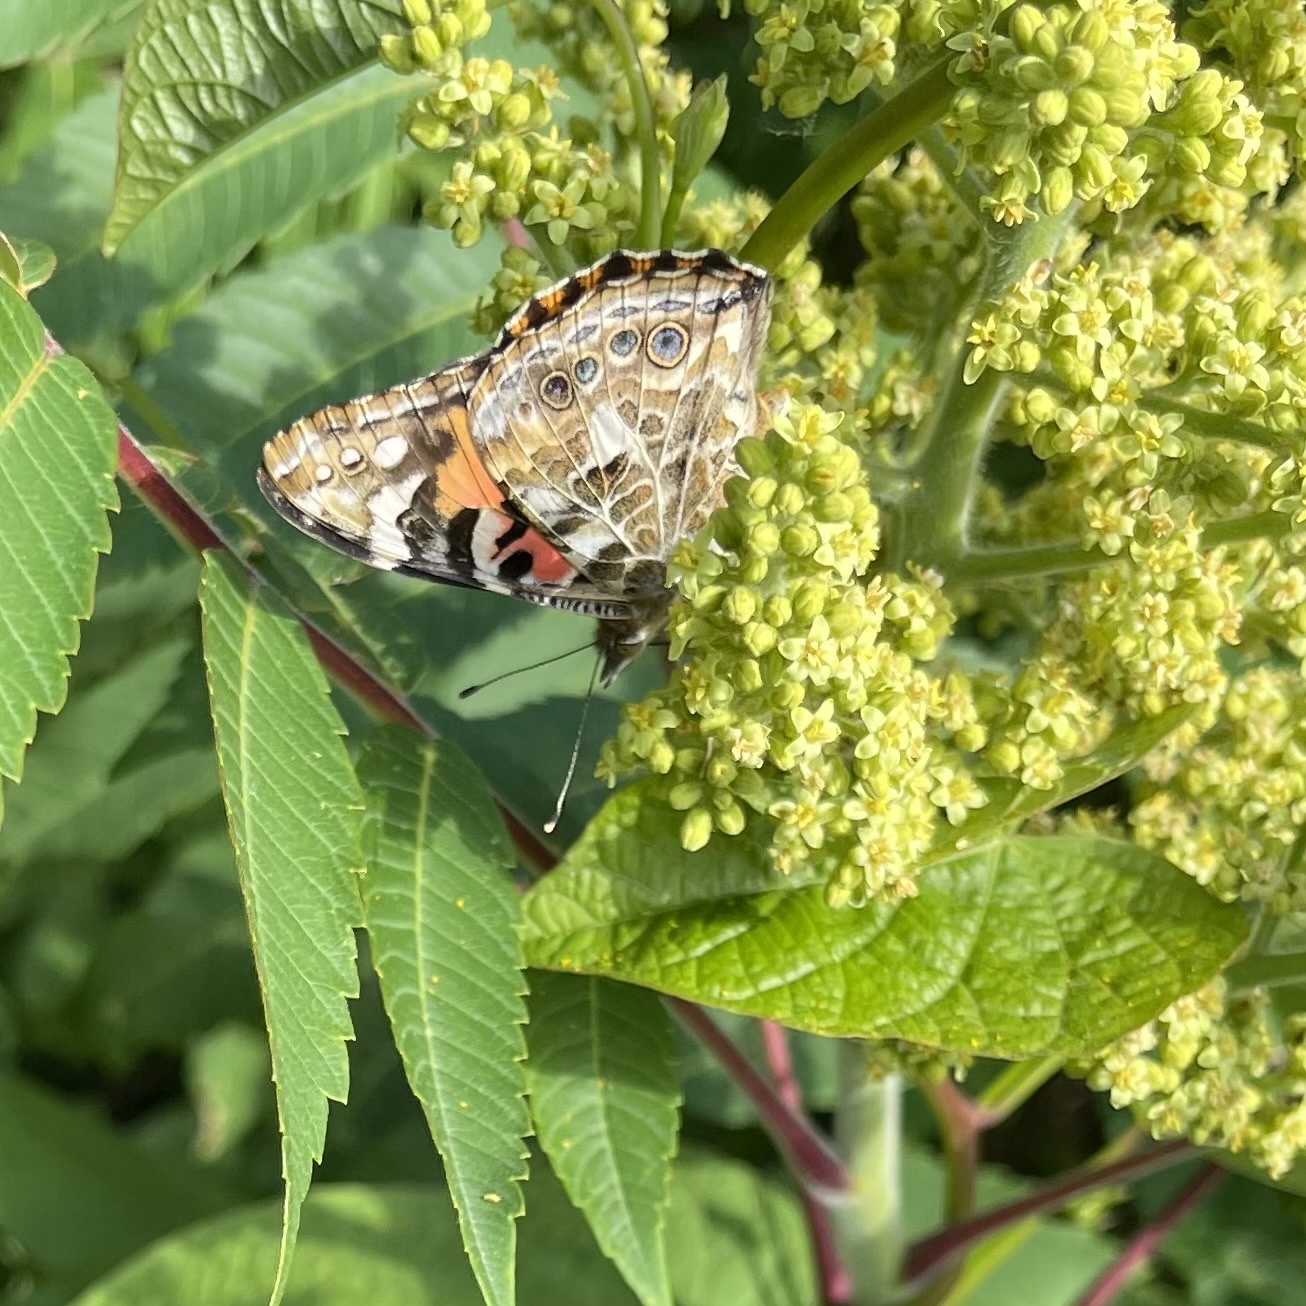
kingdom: Animalia
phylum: Arthropoda
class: Insecta
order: Lepidoptera
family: Nymphalidae
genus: Vanessa
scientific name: Vanessa cardui
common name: Painted lady
